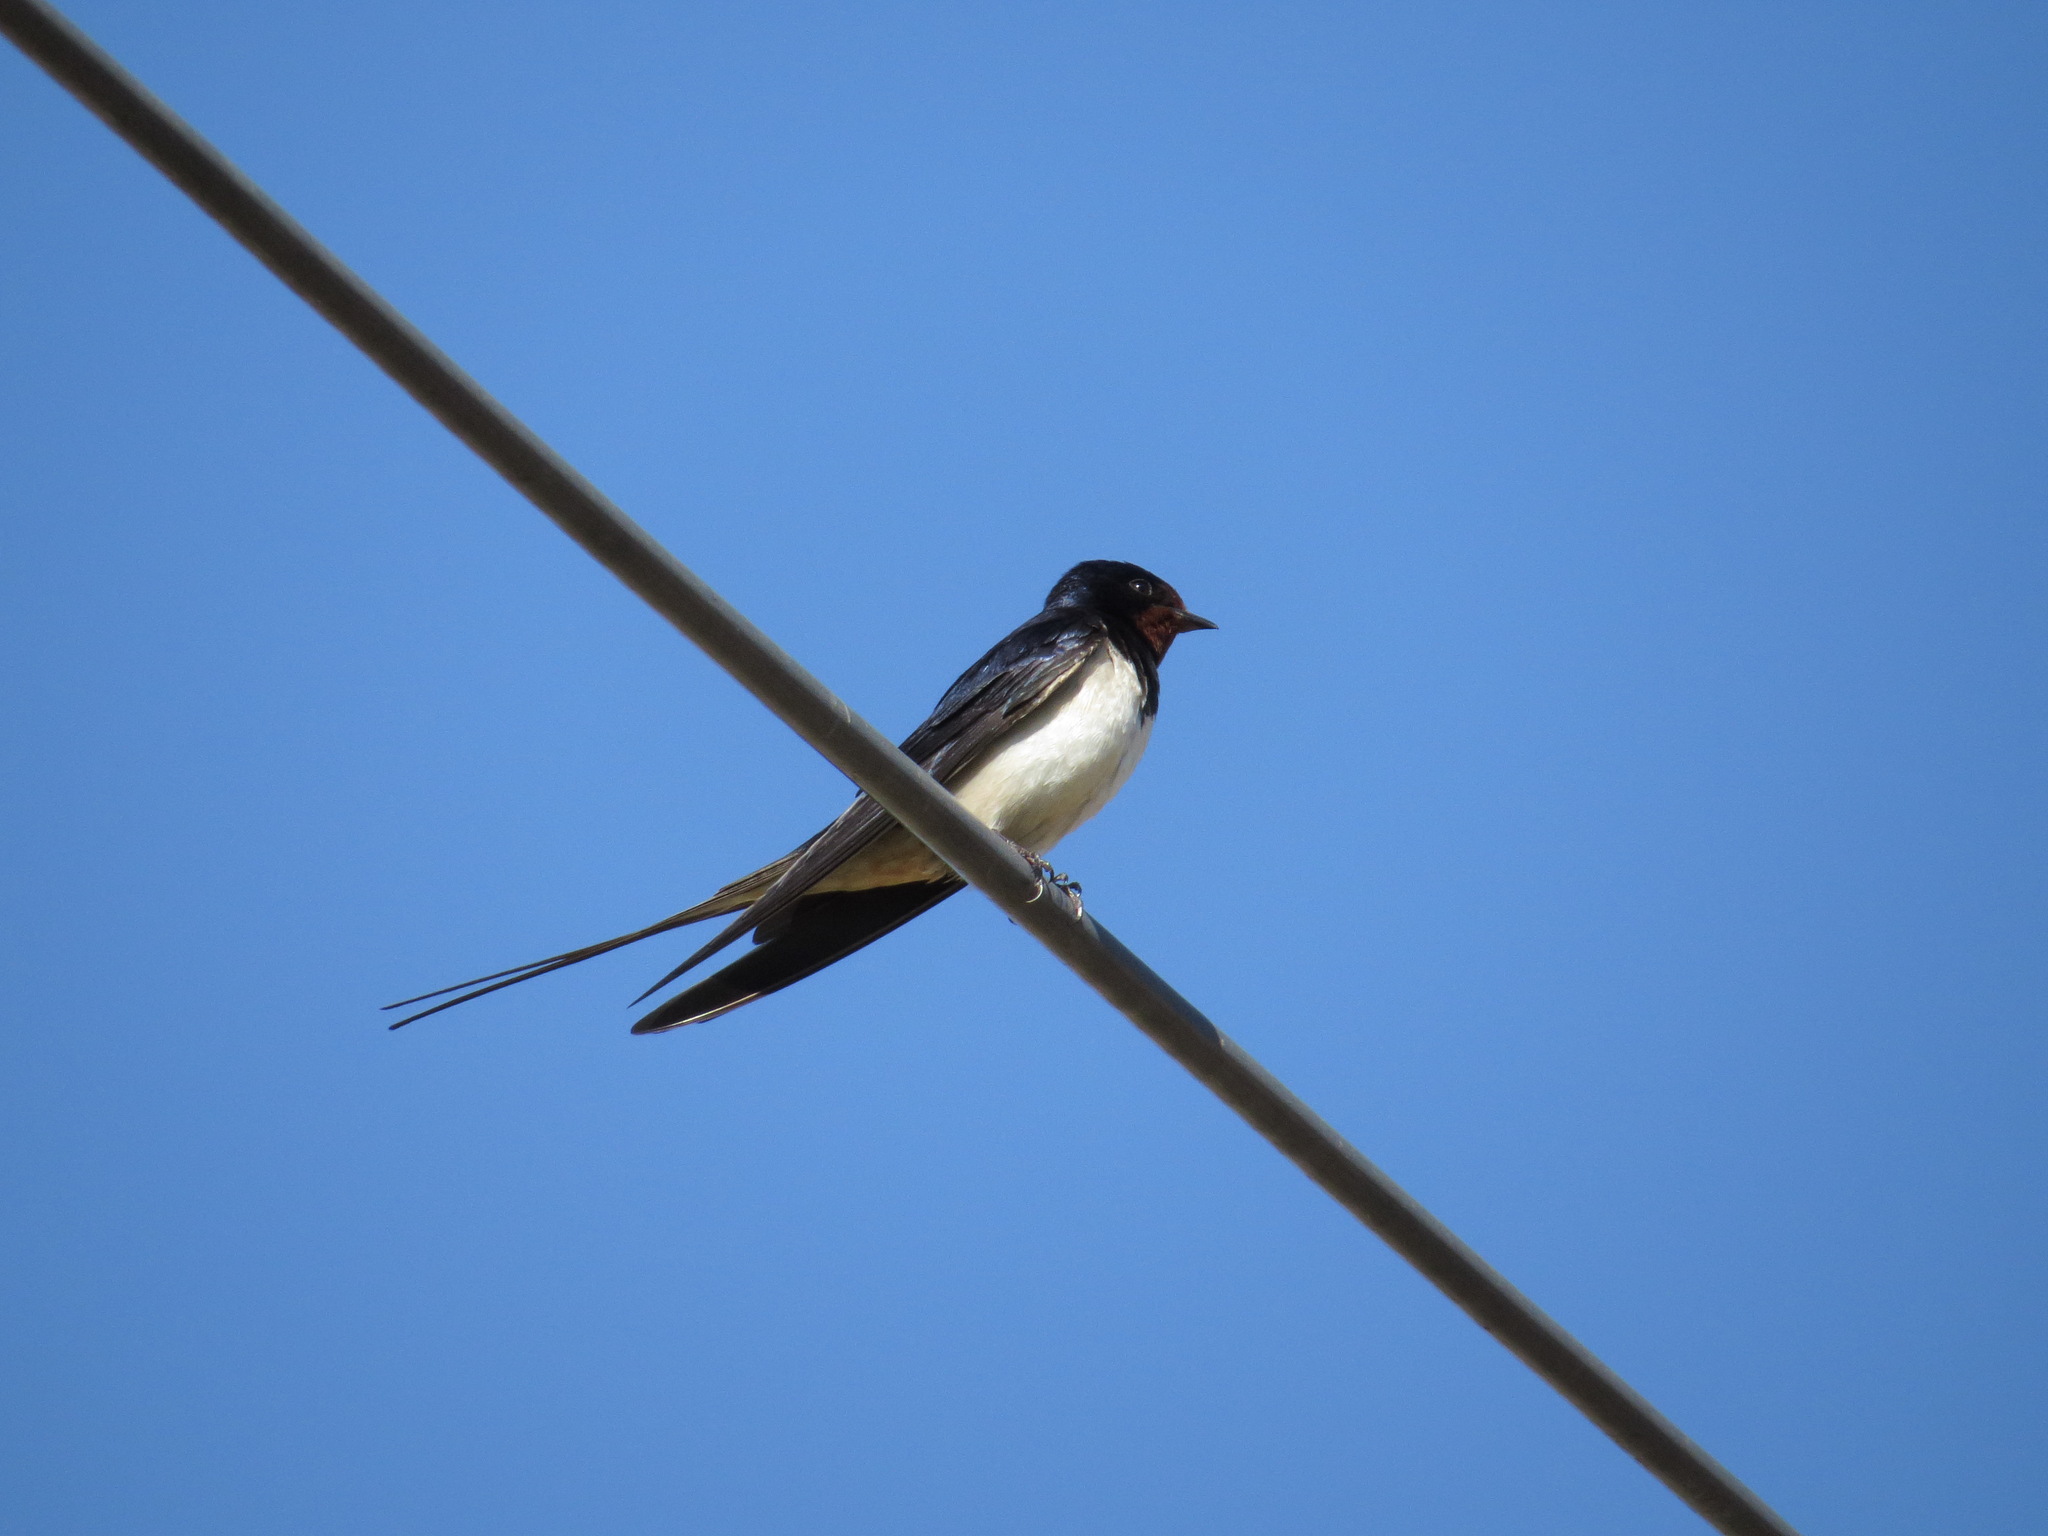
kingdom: Animalia
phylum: Chordata
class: Aves
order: Passeriformes
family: Hirundinidae
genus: Hirundo
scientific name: Hirundo rustica
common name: Barn swallow
